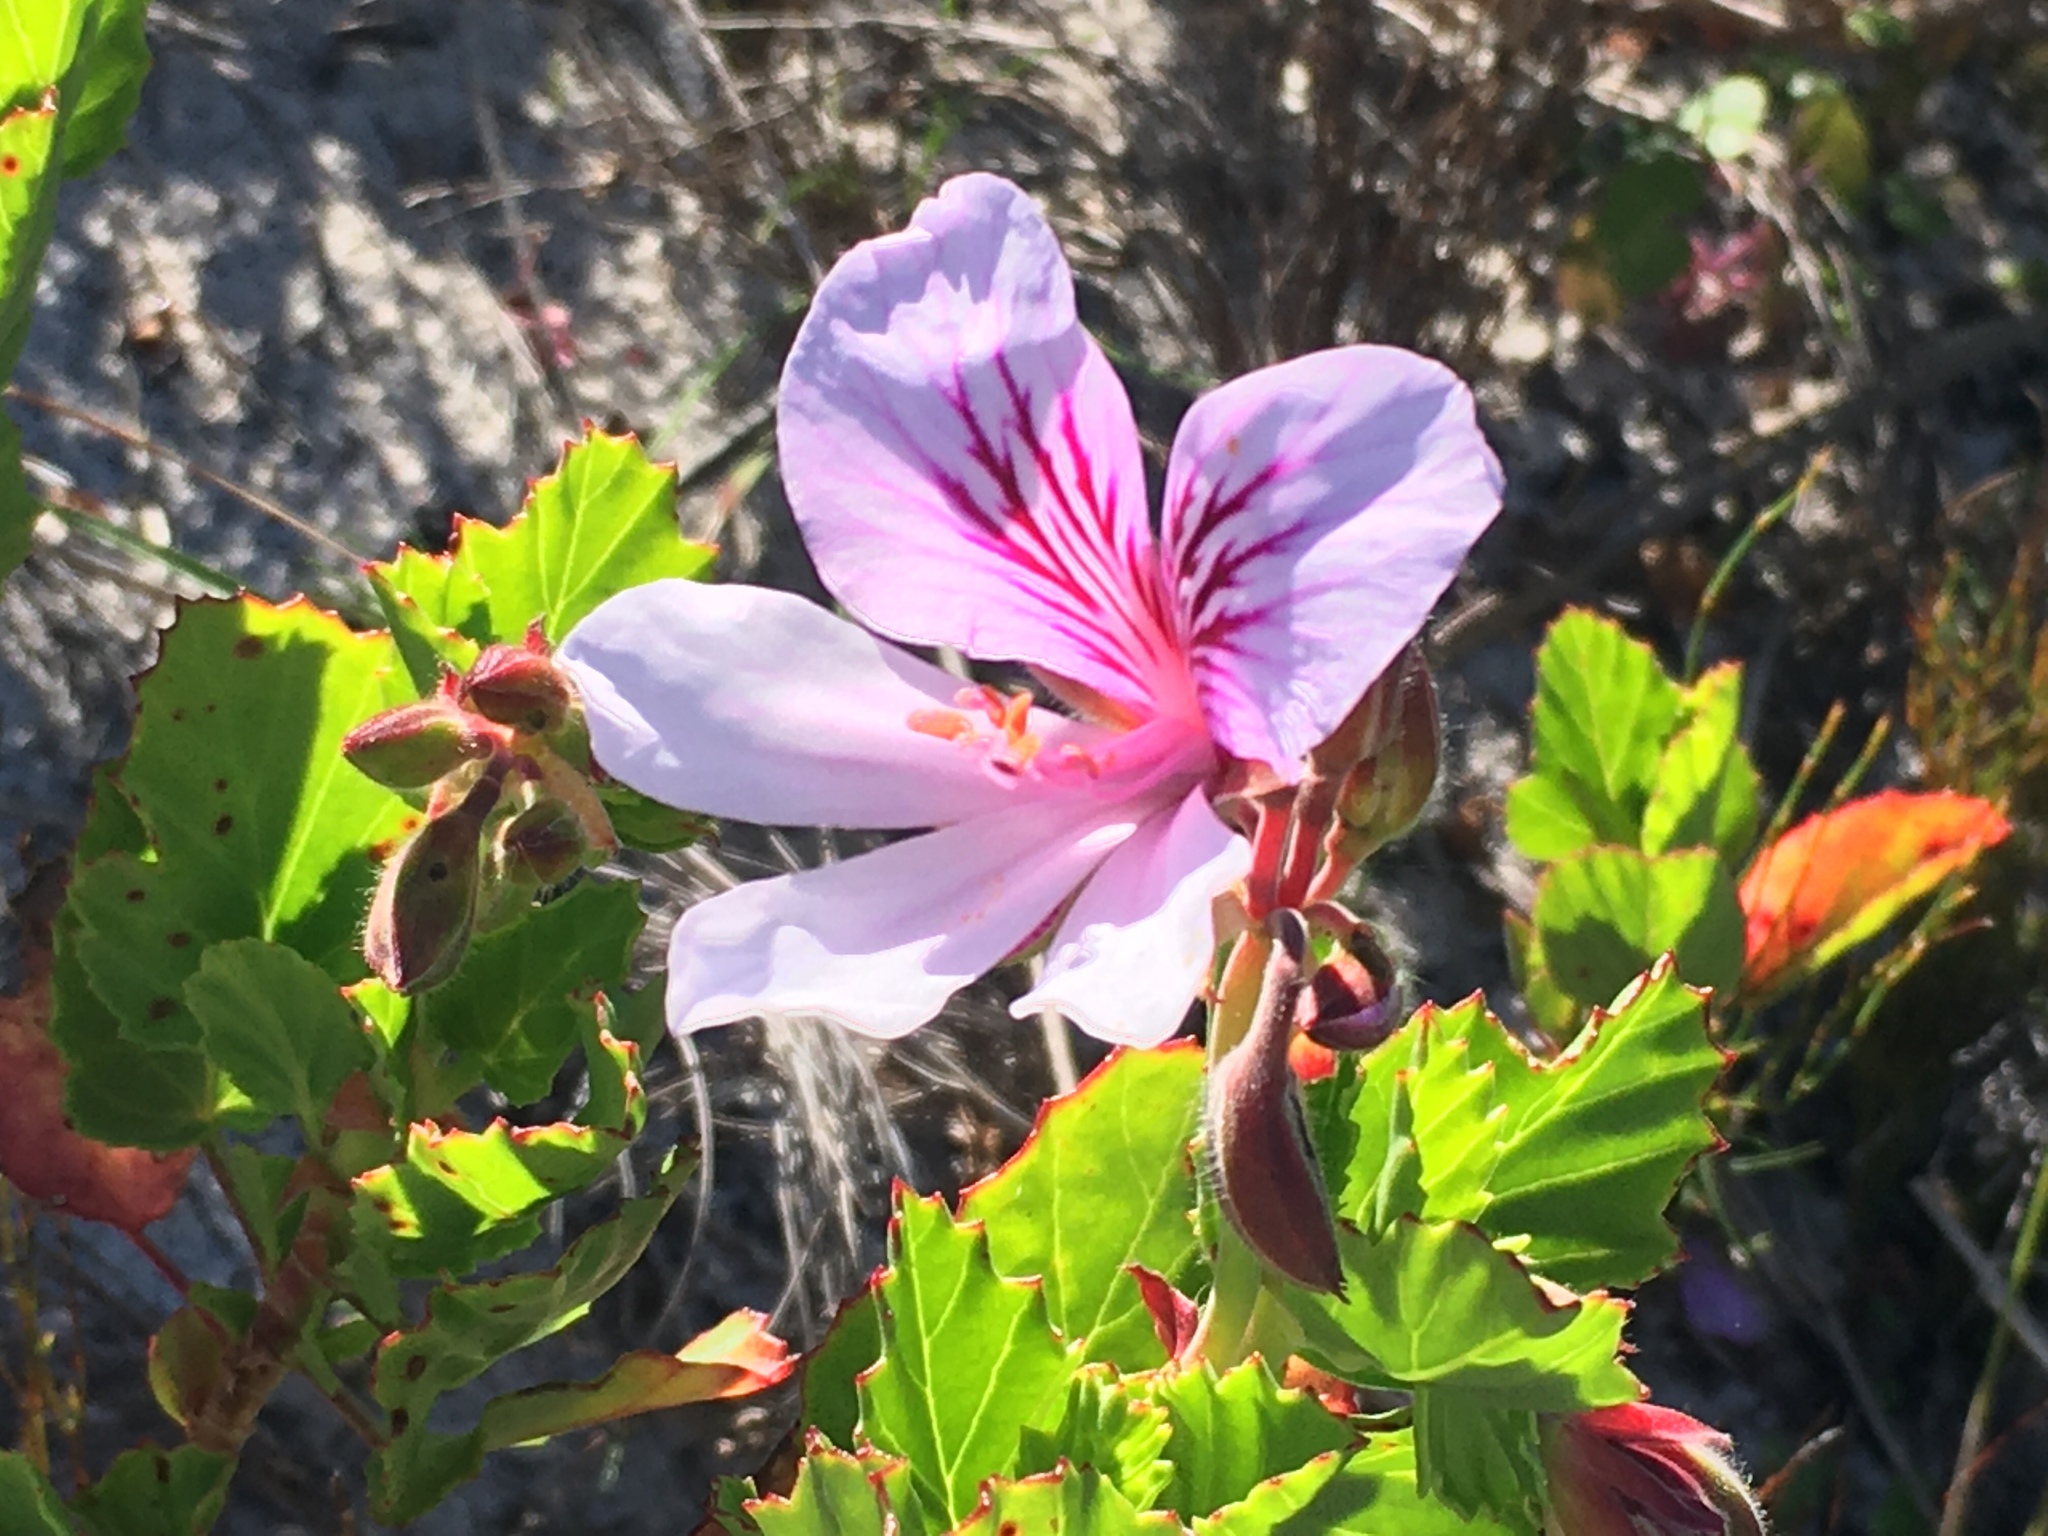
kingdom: Plantae
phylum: Tracheophyta
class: Magnoliopsida
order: Geraniales
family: Geraniaceae
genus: Pelargonium
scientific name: Pelargonium betulinum
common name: Birch-leaf pelargonium
